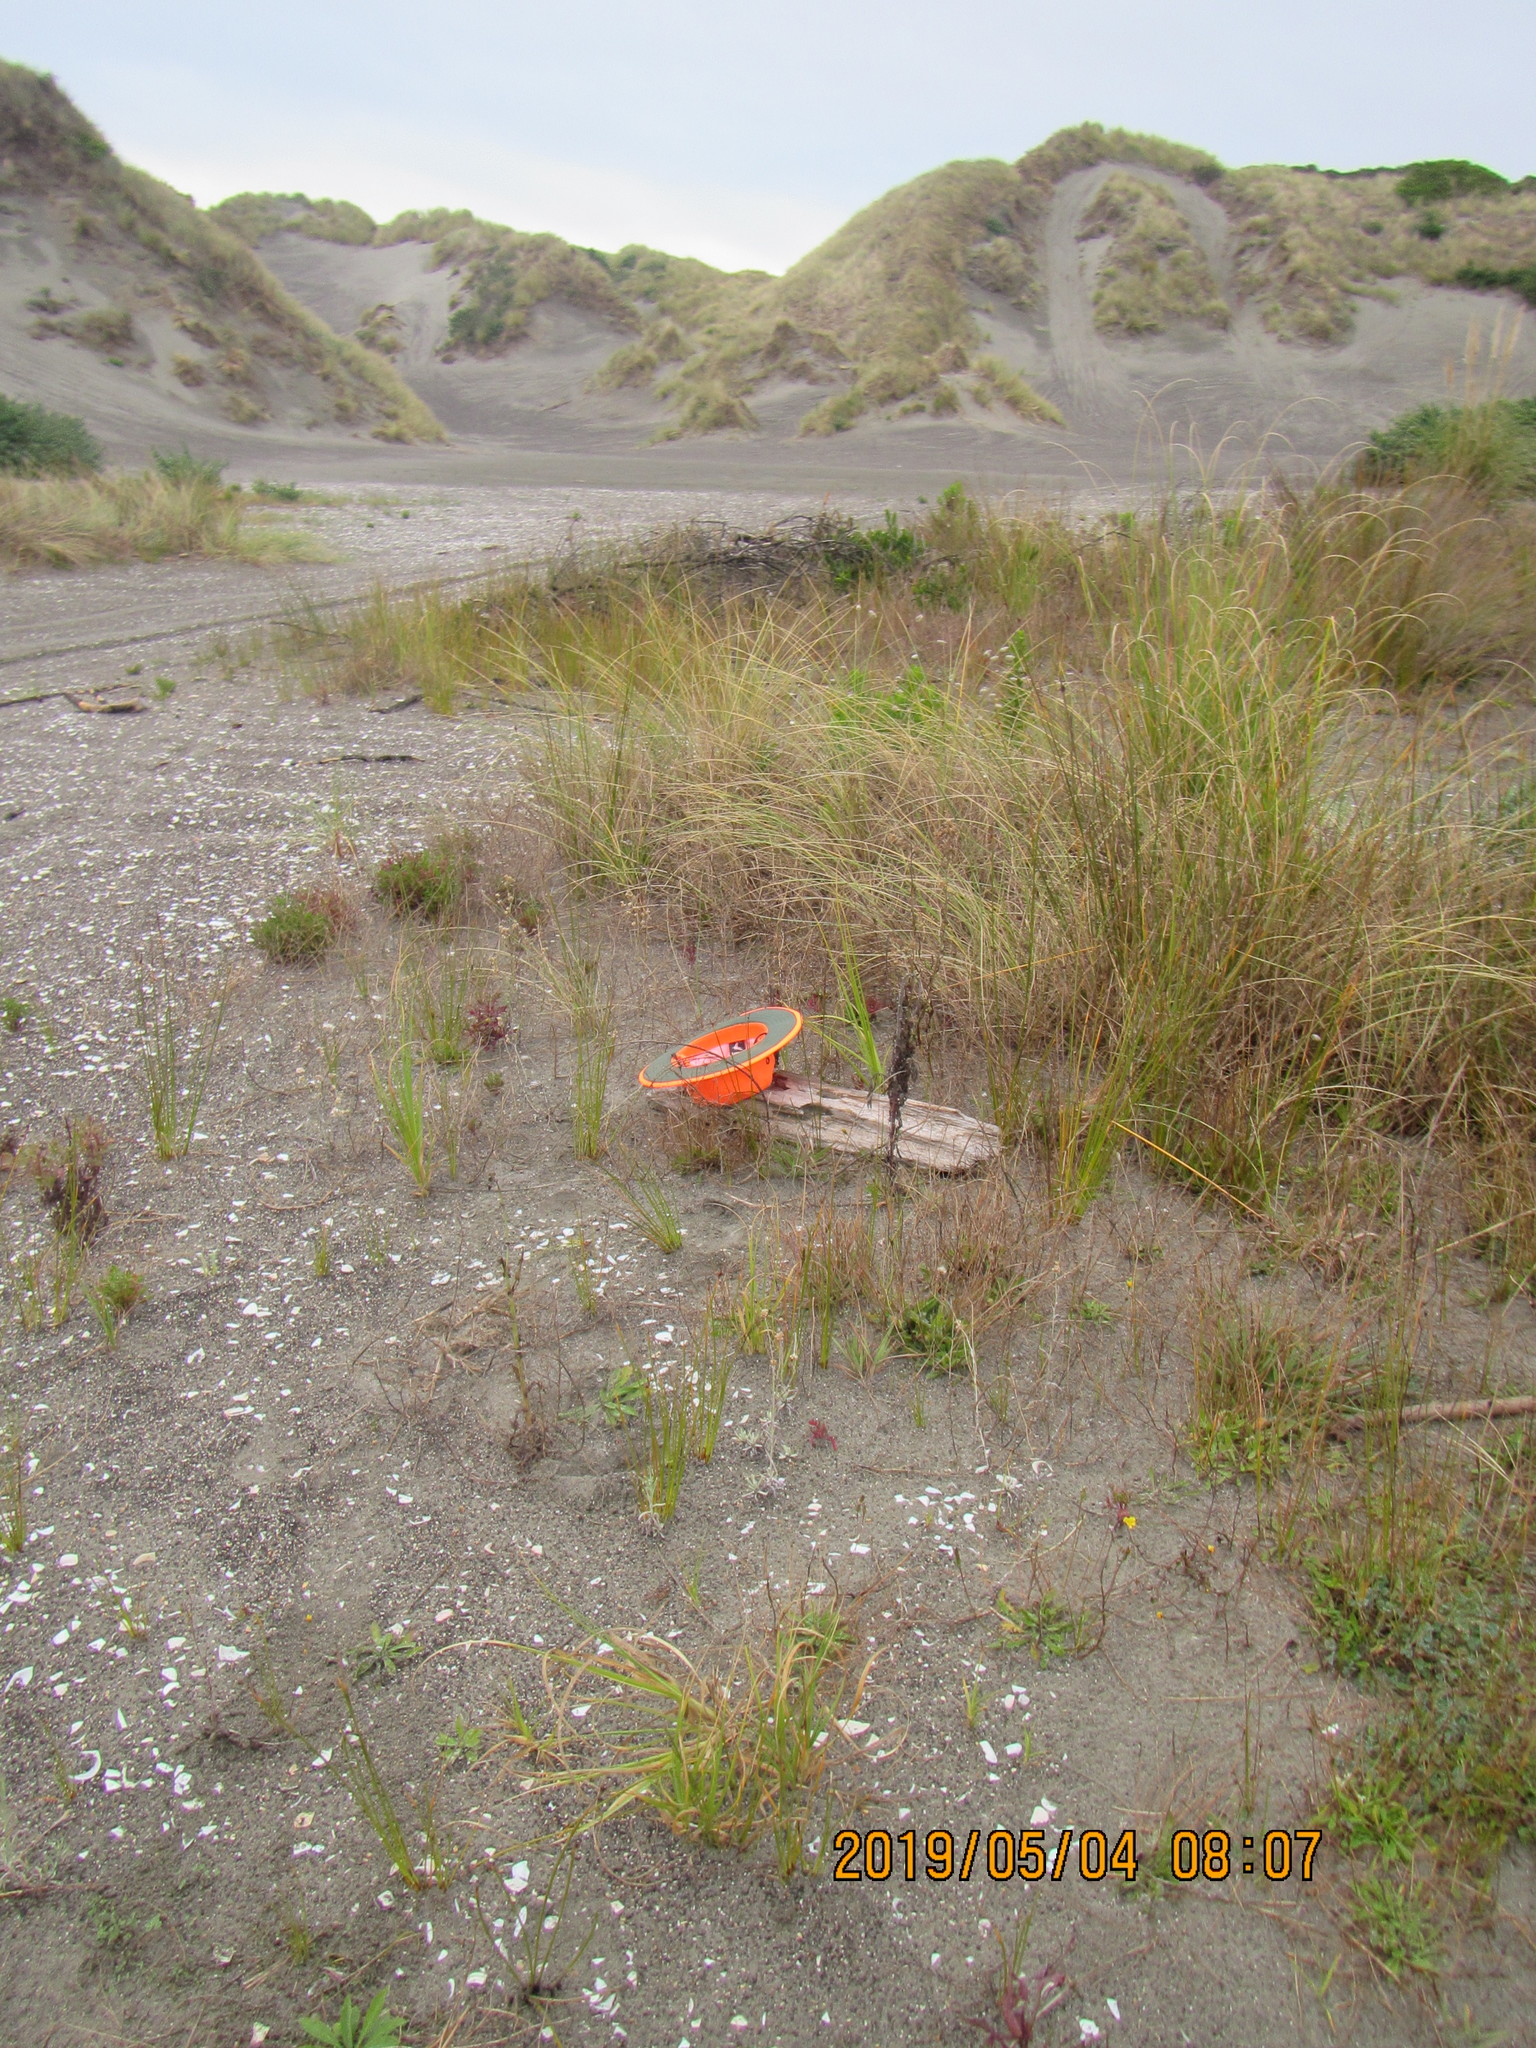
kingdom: Animalia
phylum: Arthropoda
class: Arachnida
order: Araneae
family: Theridiidae
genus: Steatoda
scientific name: Steatoda capensis
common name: Cobweb weaver
